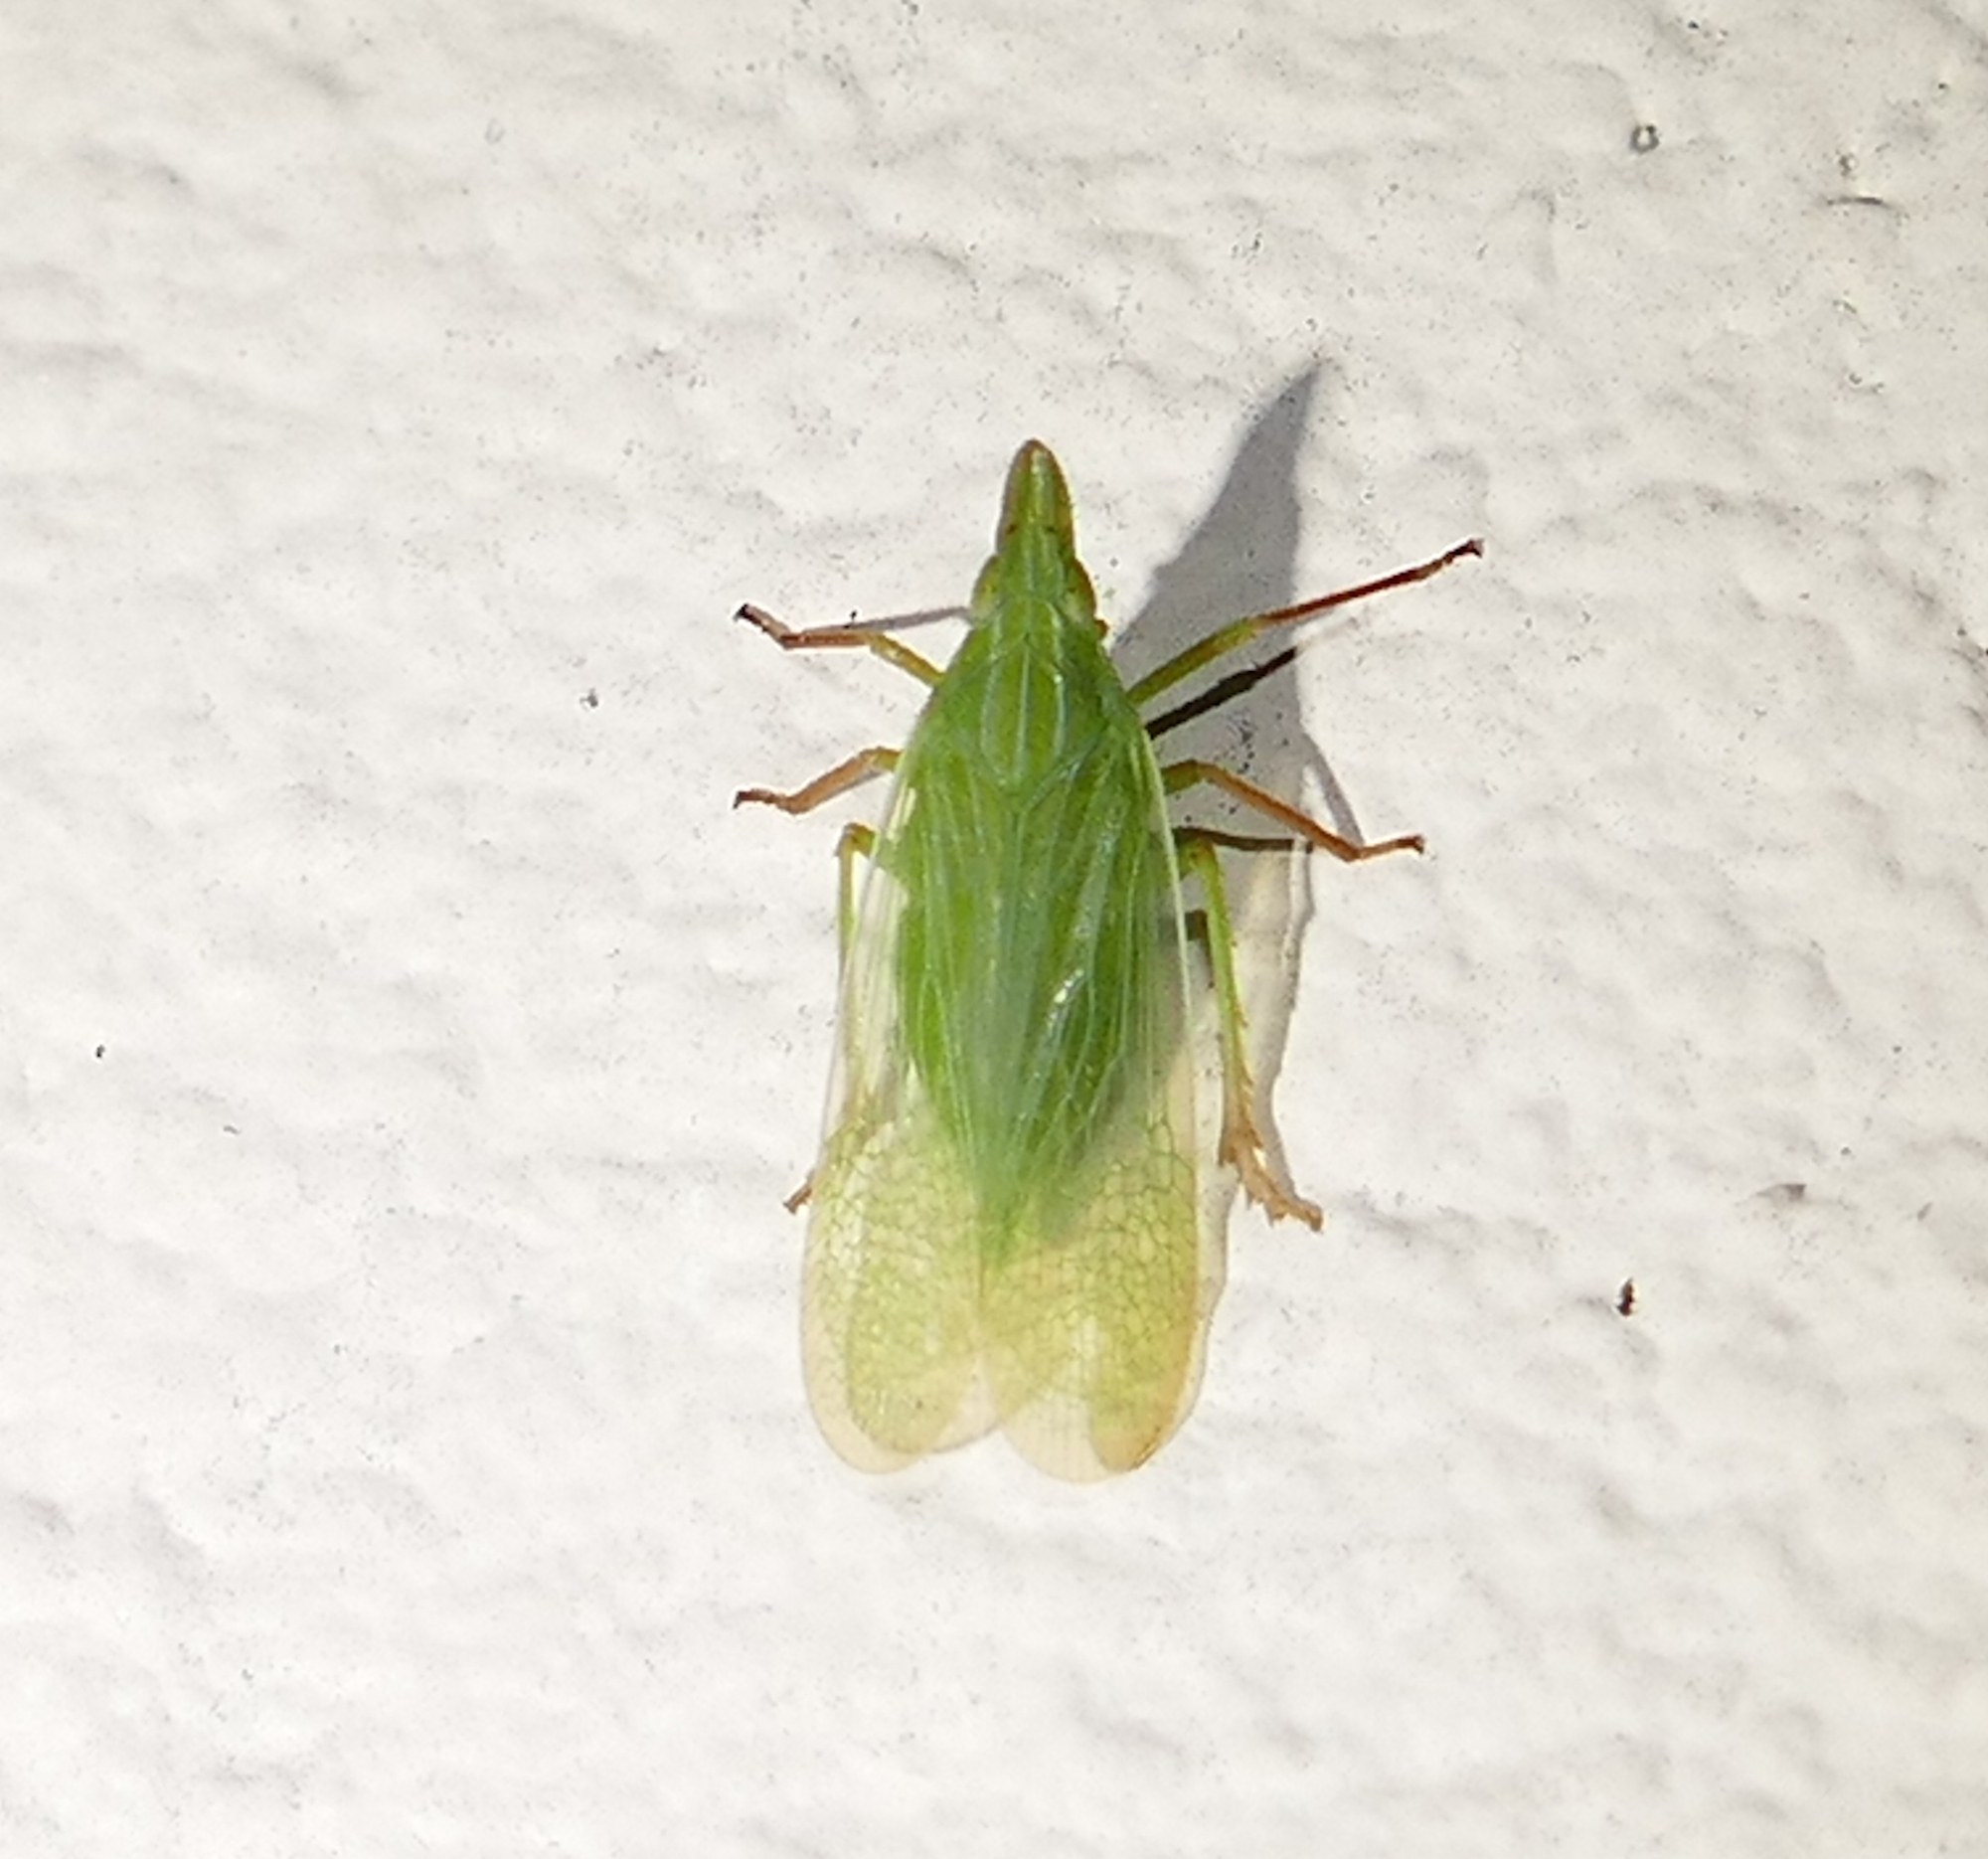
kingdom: Animalia
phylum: Arthropoda
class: Insecta
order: Hemiptera
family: Dictyopharidae
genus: Rhynchomitra
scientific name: Rhynchomitra recurva
